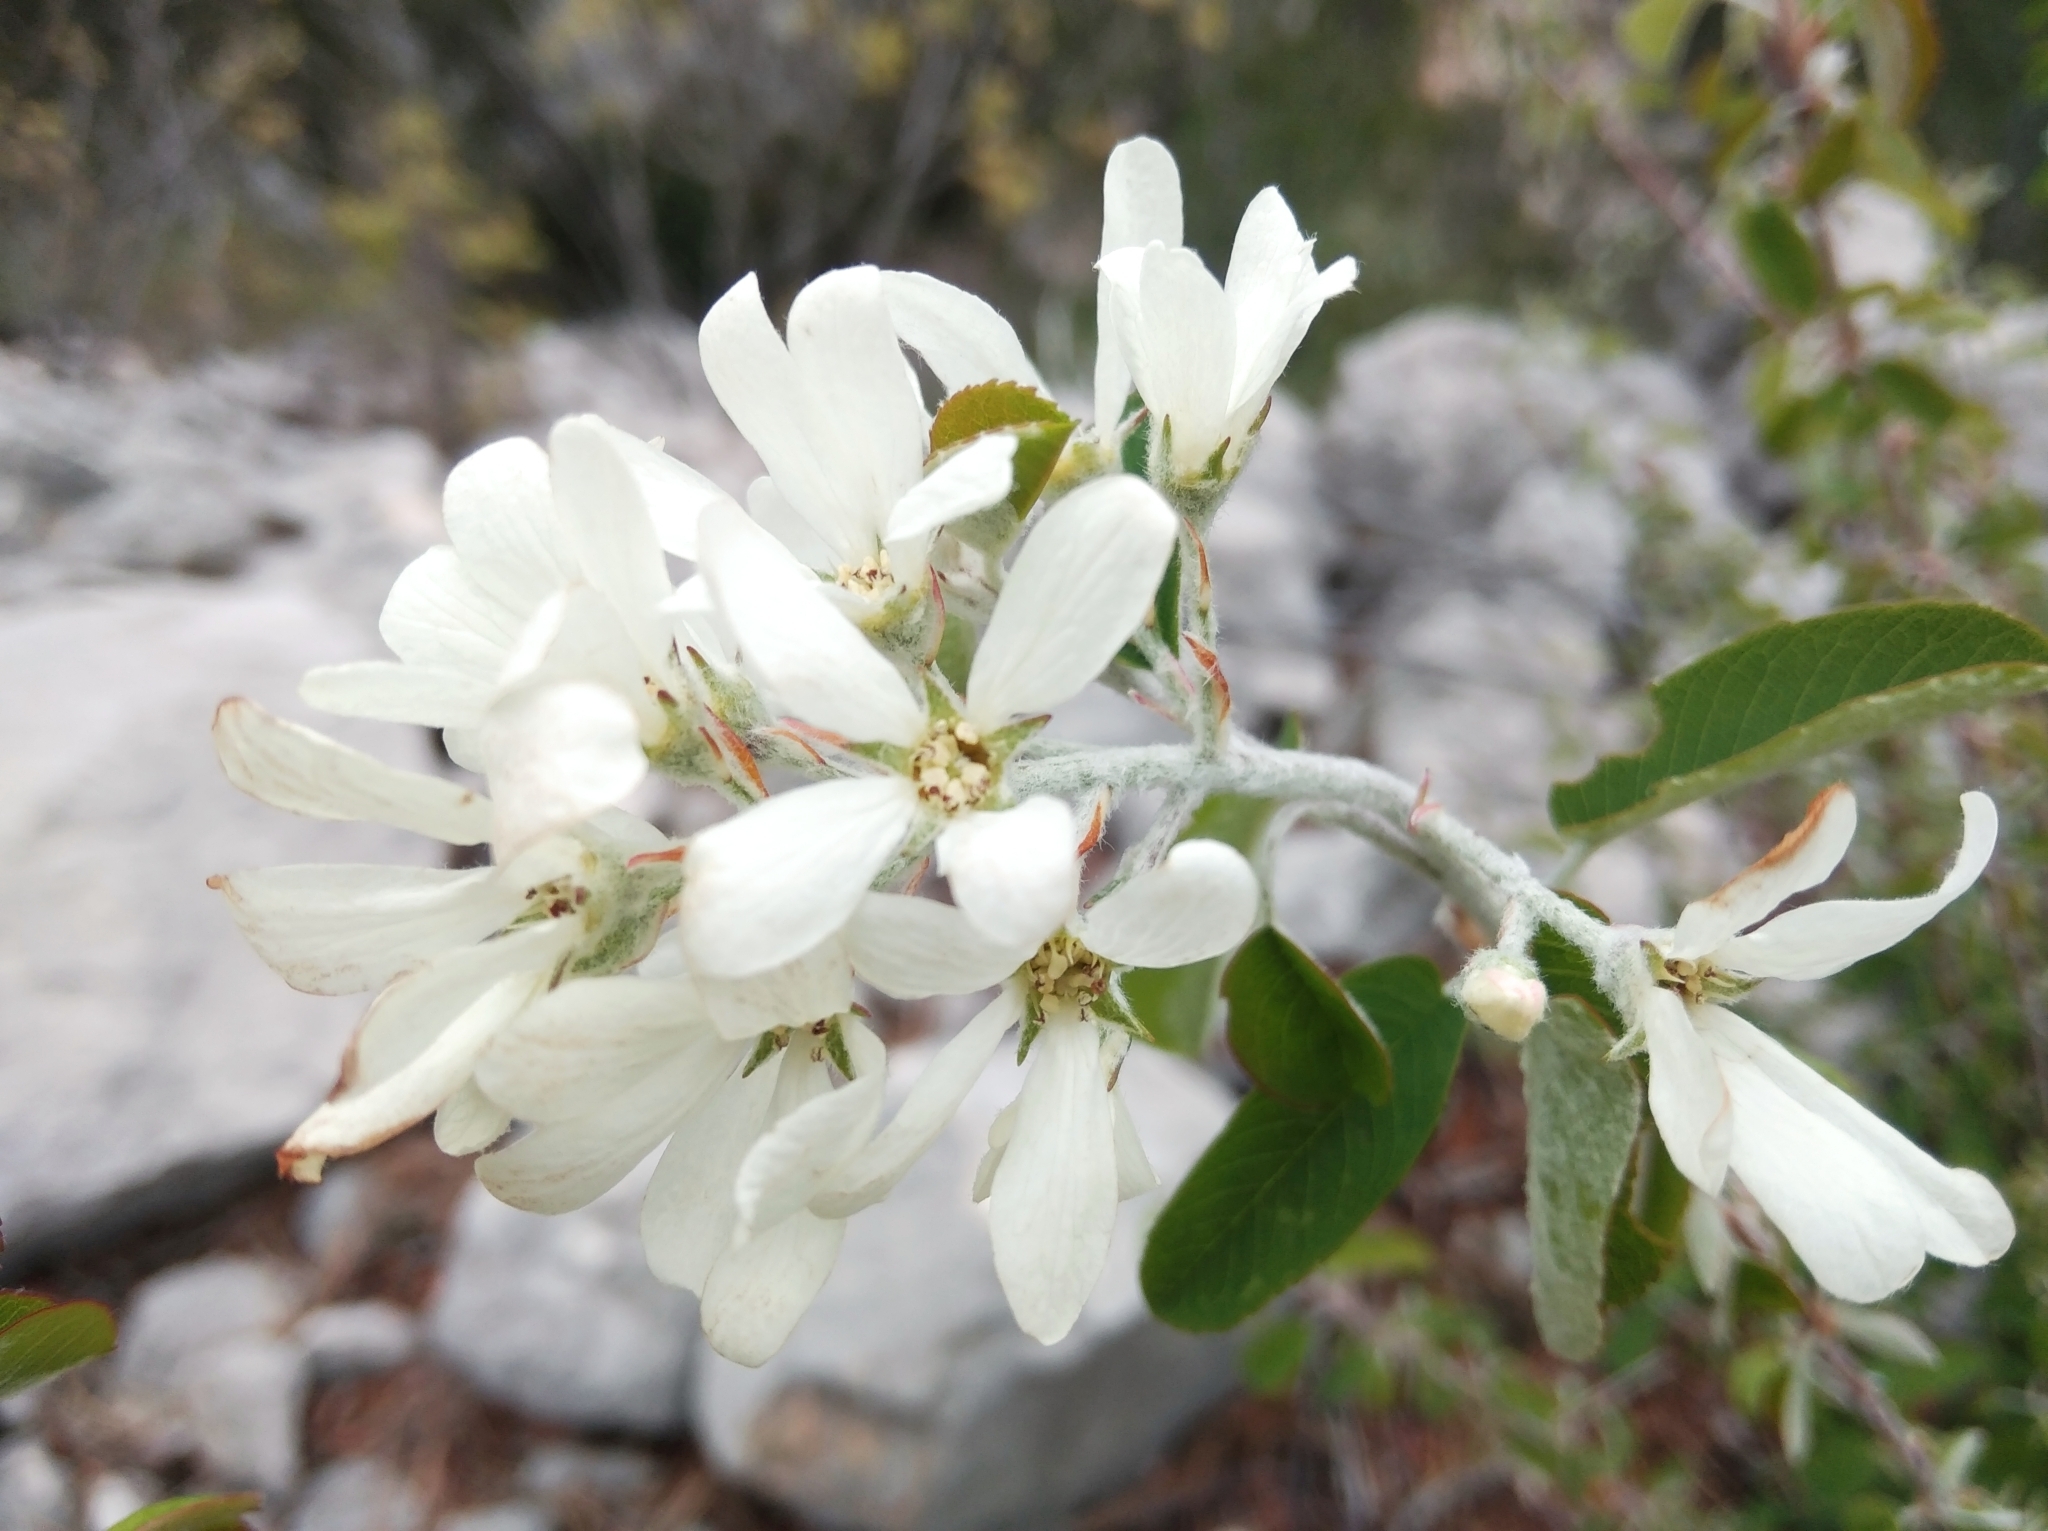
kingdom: Plantae
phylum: Tracheophyta
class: Magnoliopsida
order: Rosales
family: Rosaceae
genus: Amelanchier
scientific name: Amelanchier ovalis
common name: Serviceberry
